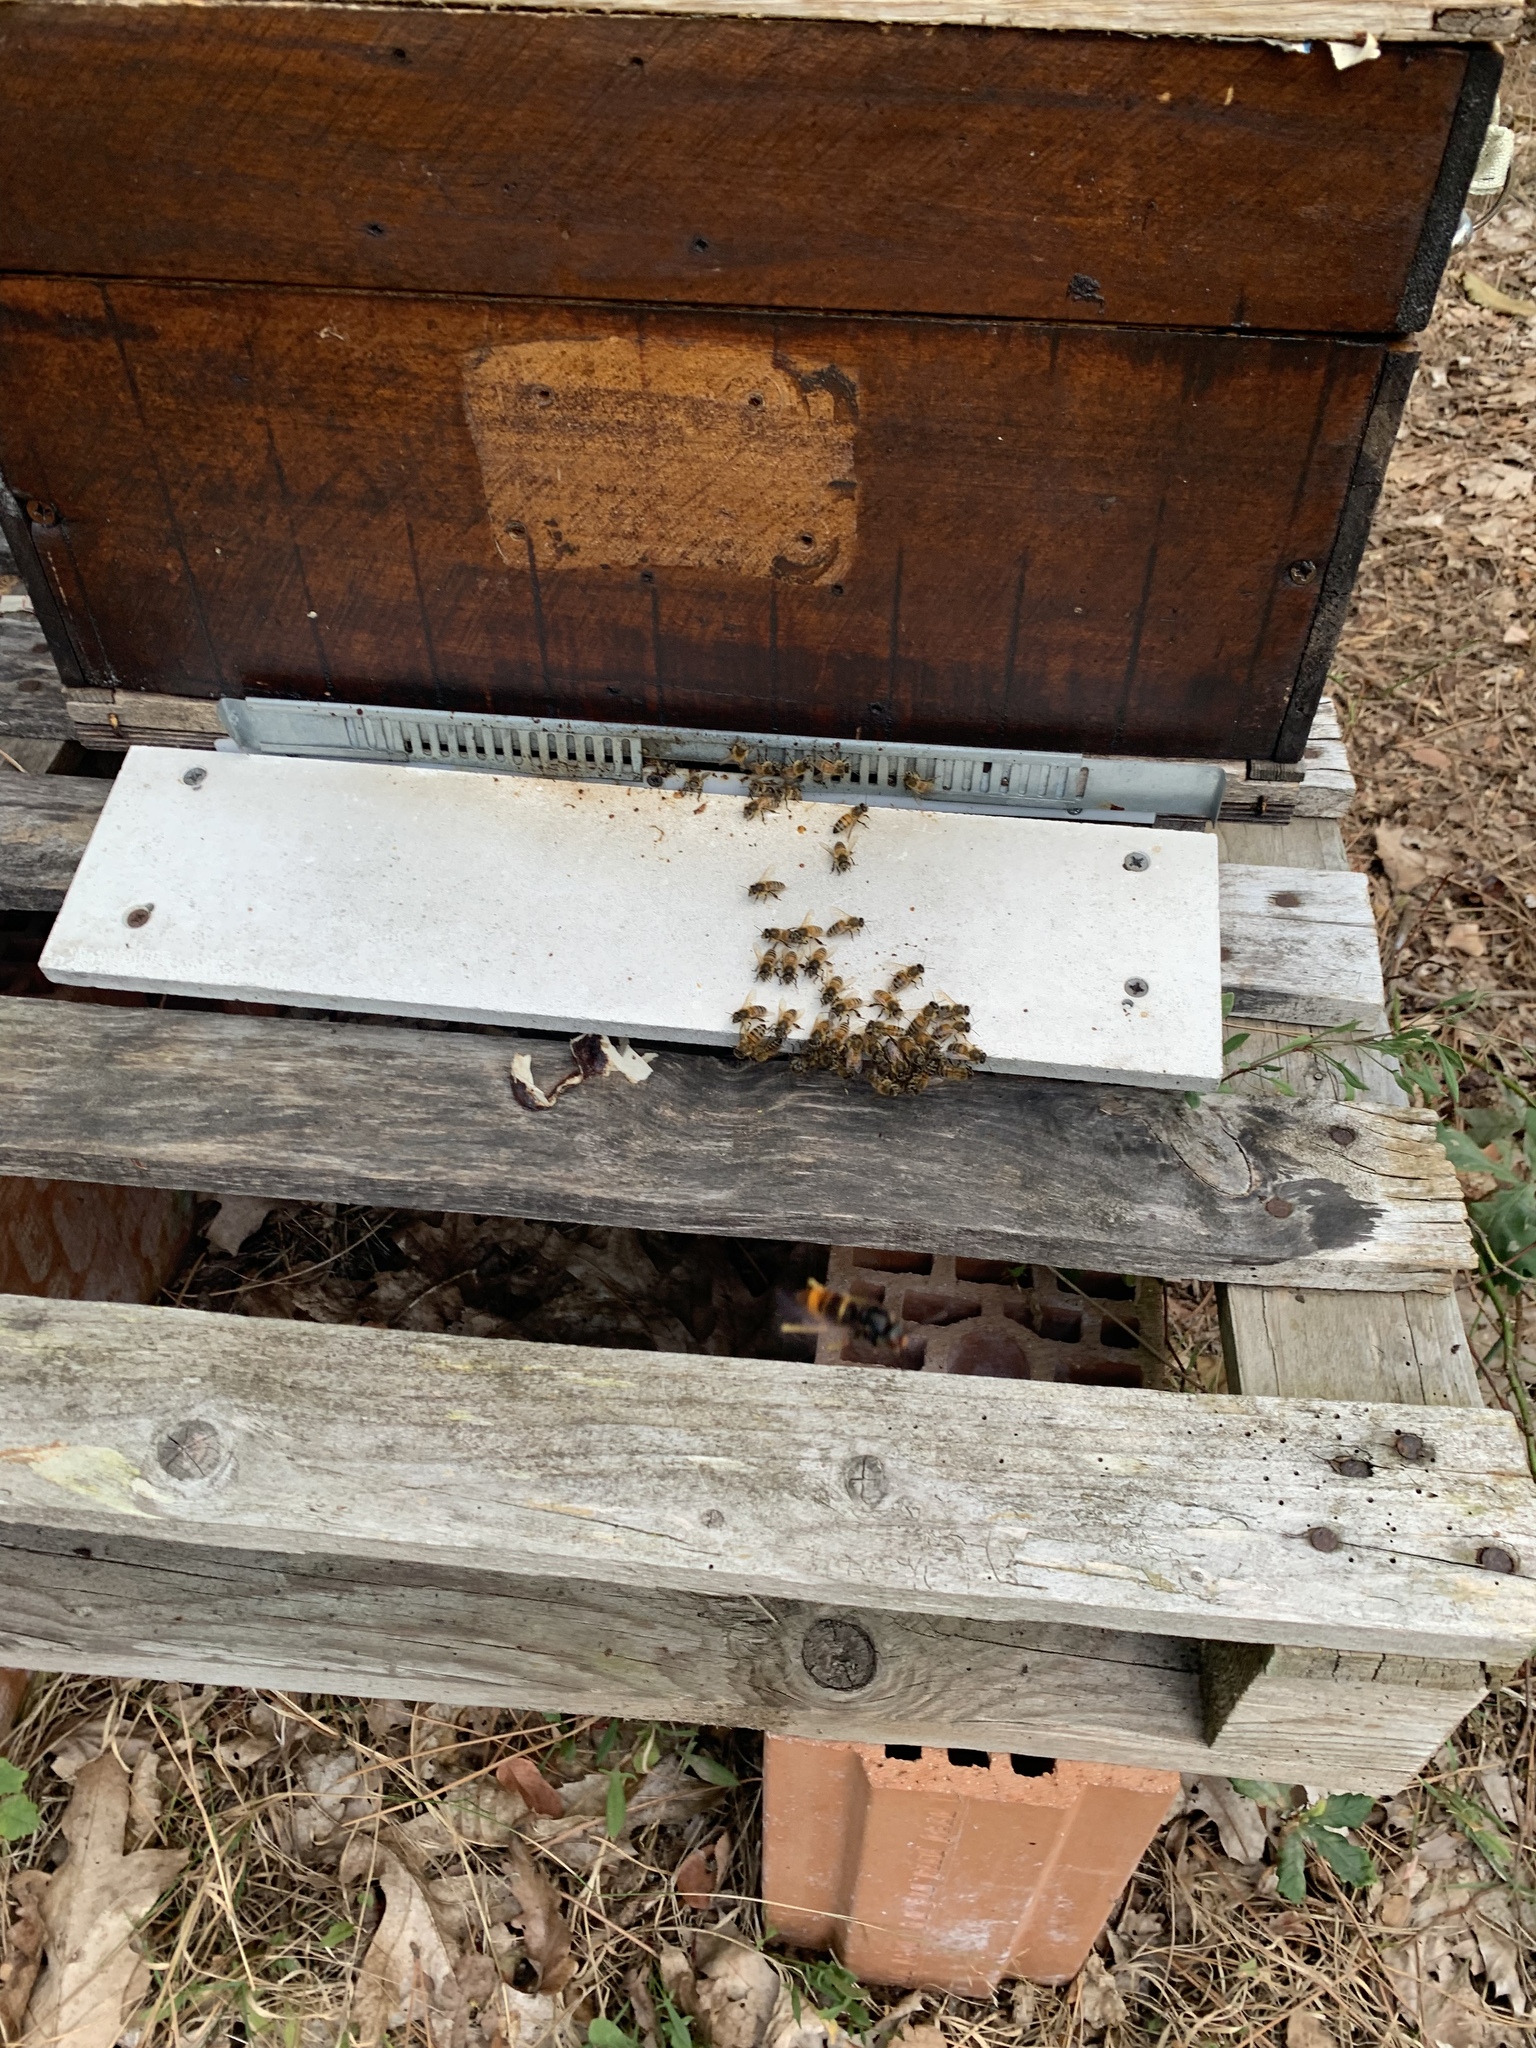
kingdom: Animalia
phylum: Arthropoda
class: Insecta
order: Hymenoptera
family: Vespidae
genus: Vespa
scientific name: Vespa velutina
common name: Asian hornet
